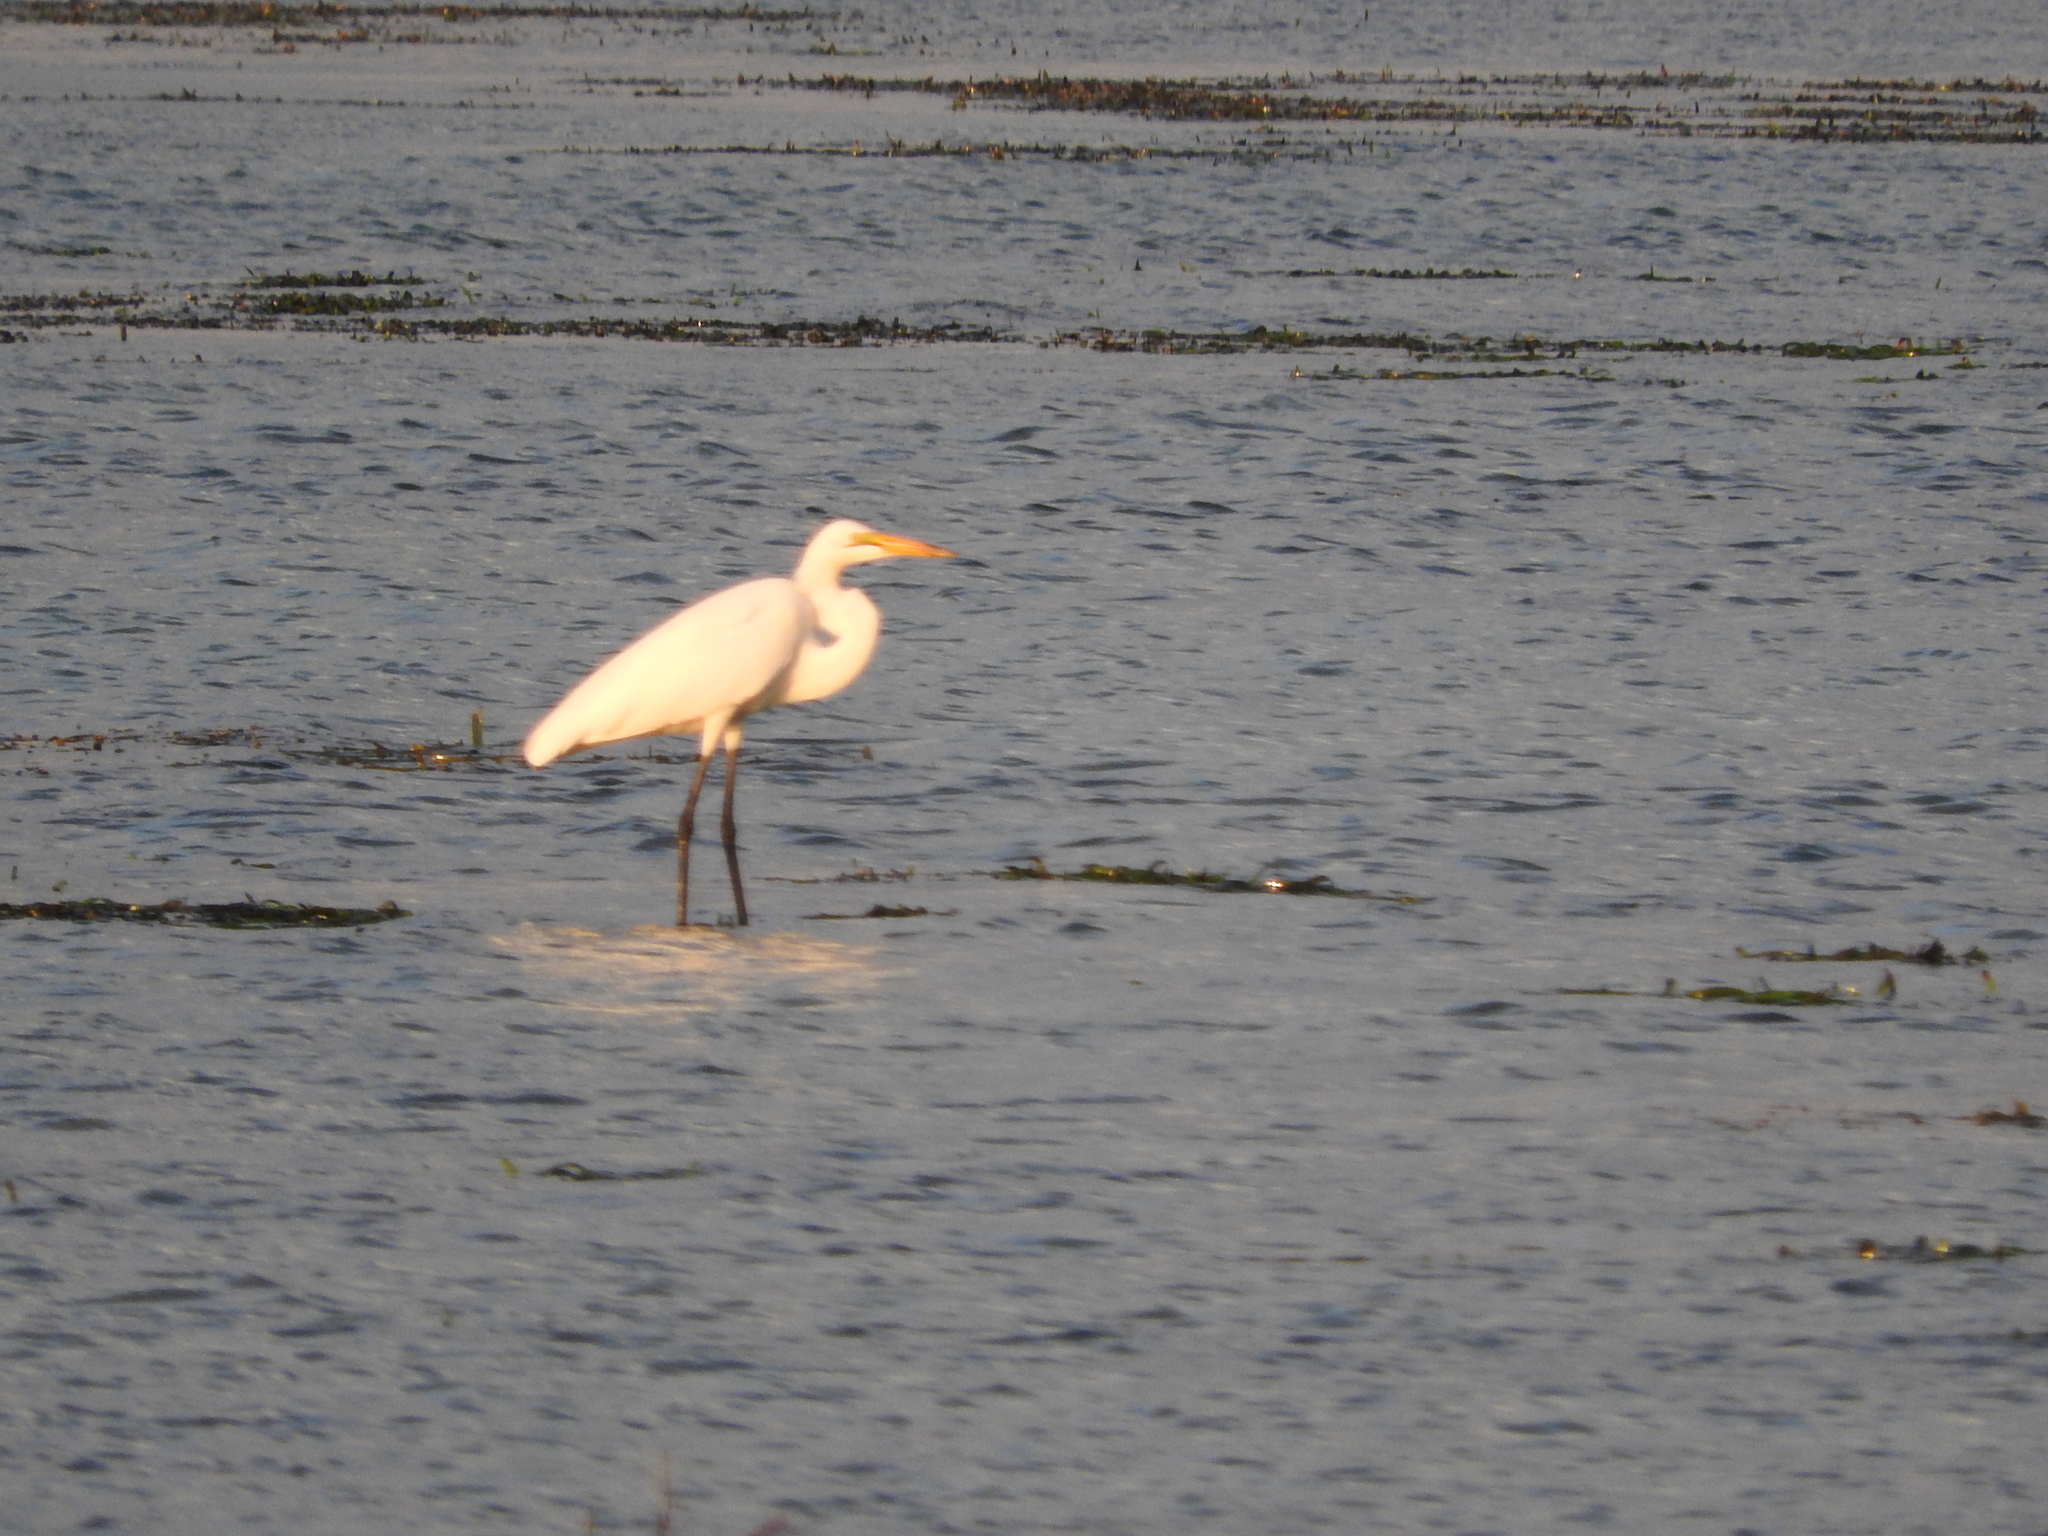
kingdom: Animalia
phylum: Chordata
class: Aves
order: Pelecaniformes
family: Ardeidae
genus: Ardea
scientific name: Ardea alba
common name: Great egret
